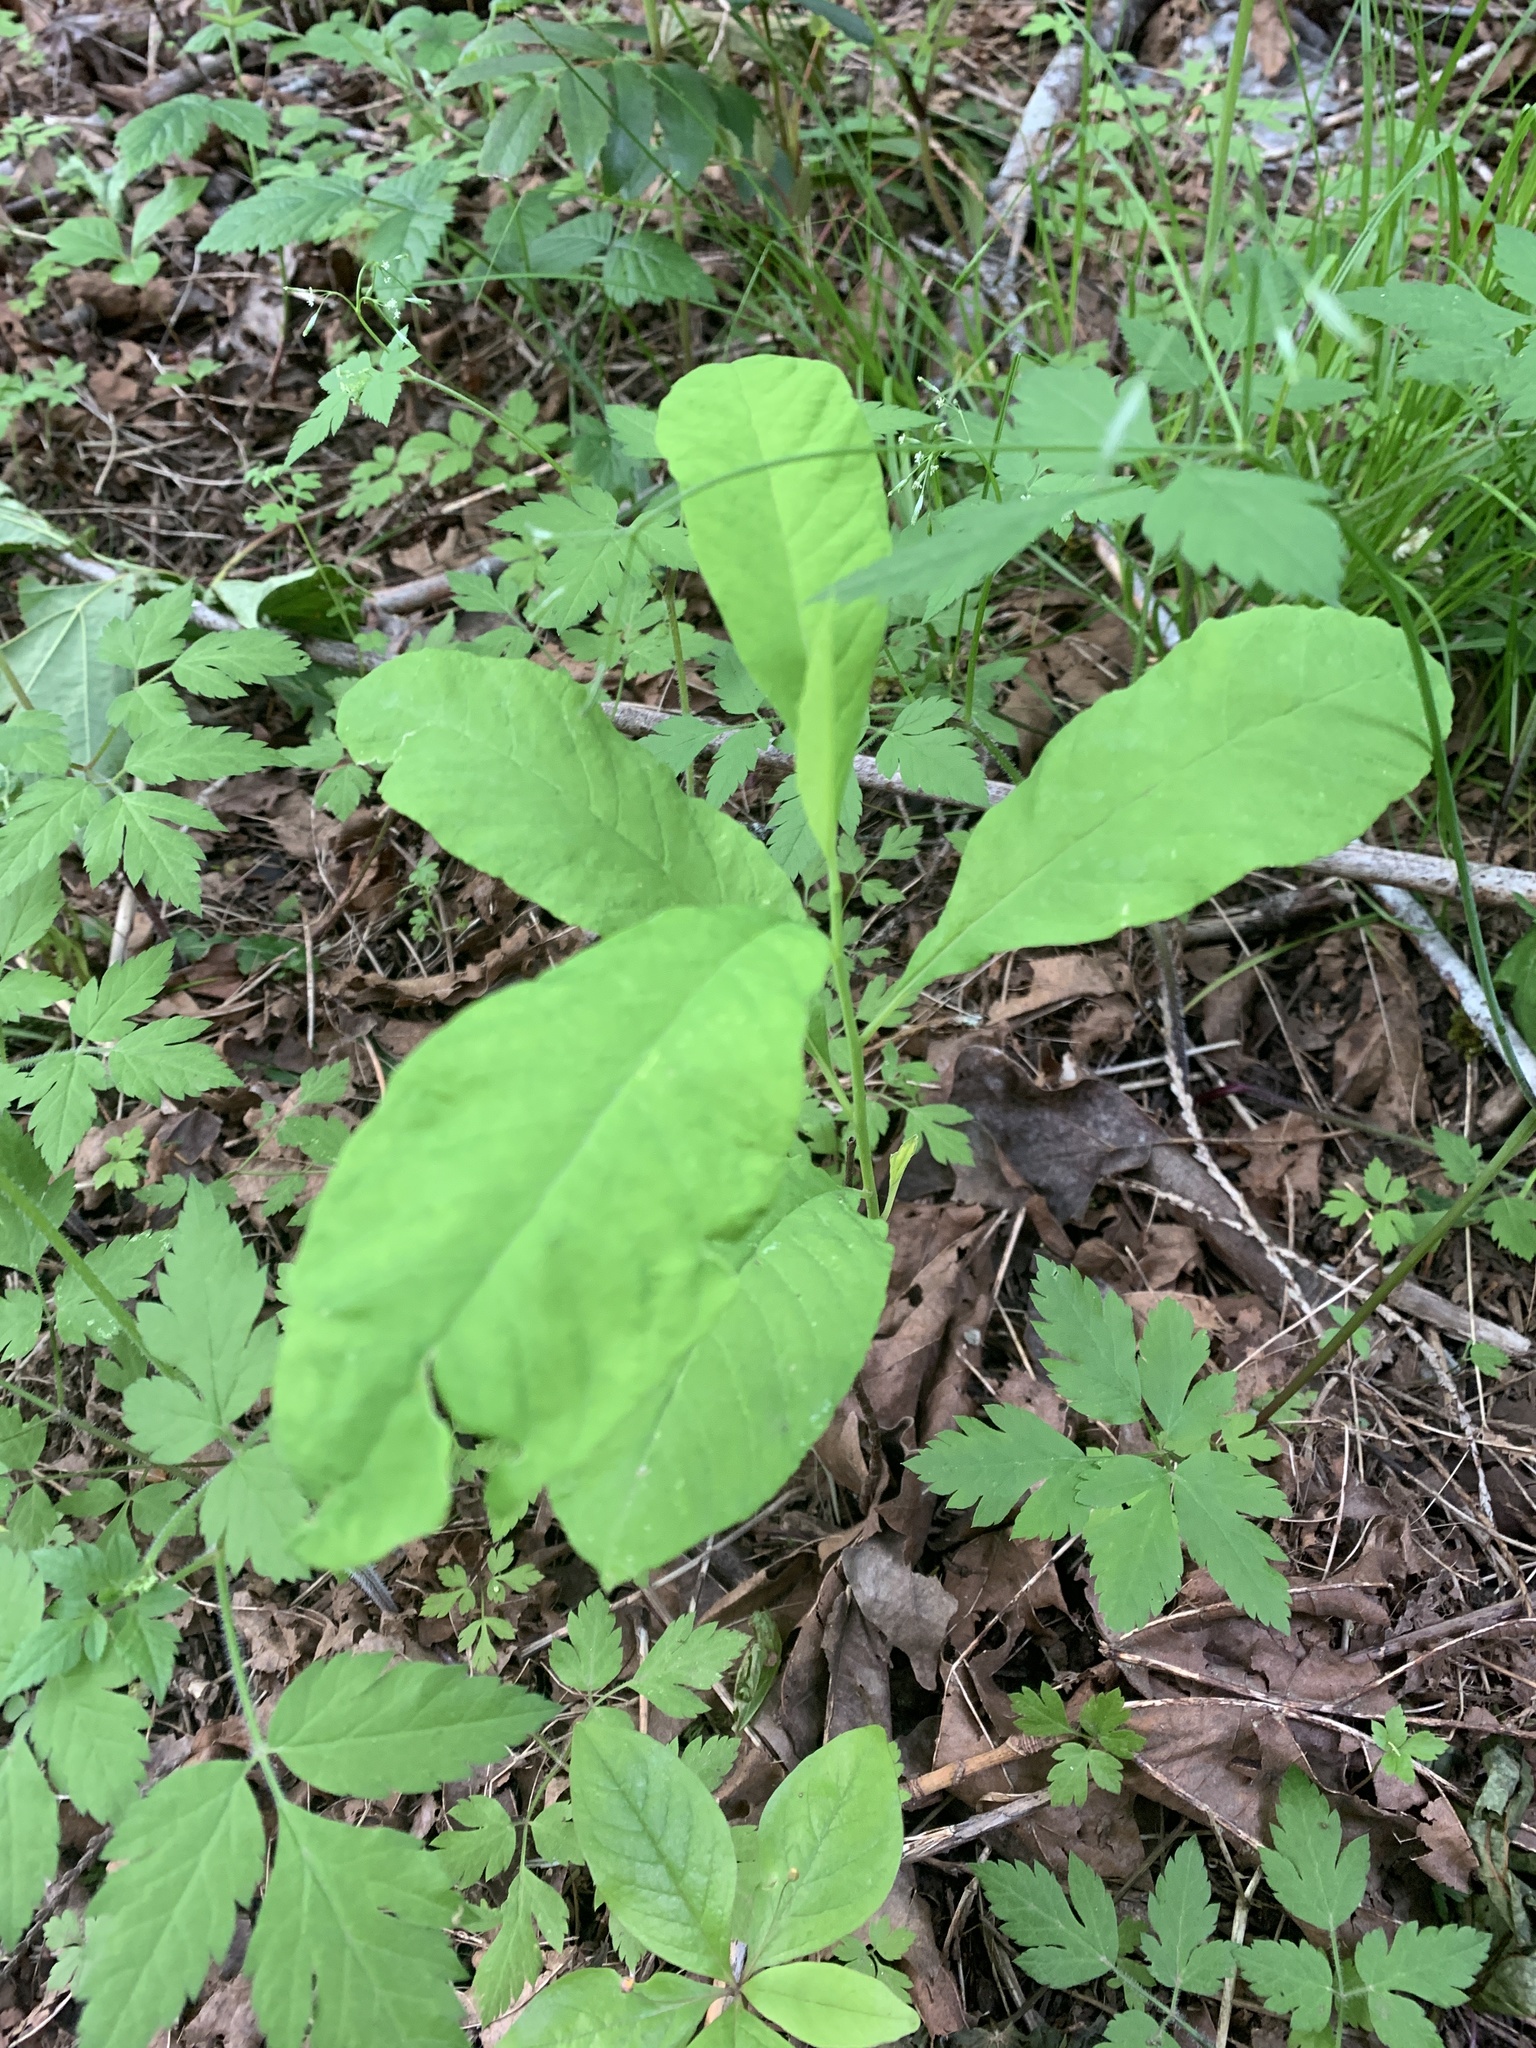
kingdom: Plantae
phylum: Tracheophyta
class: Magnoliopsida
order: Rosales
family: Rosaceae
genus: Oemleria
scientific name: Oemleria cerasiformis
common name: Osoberry
